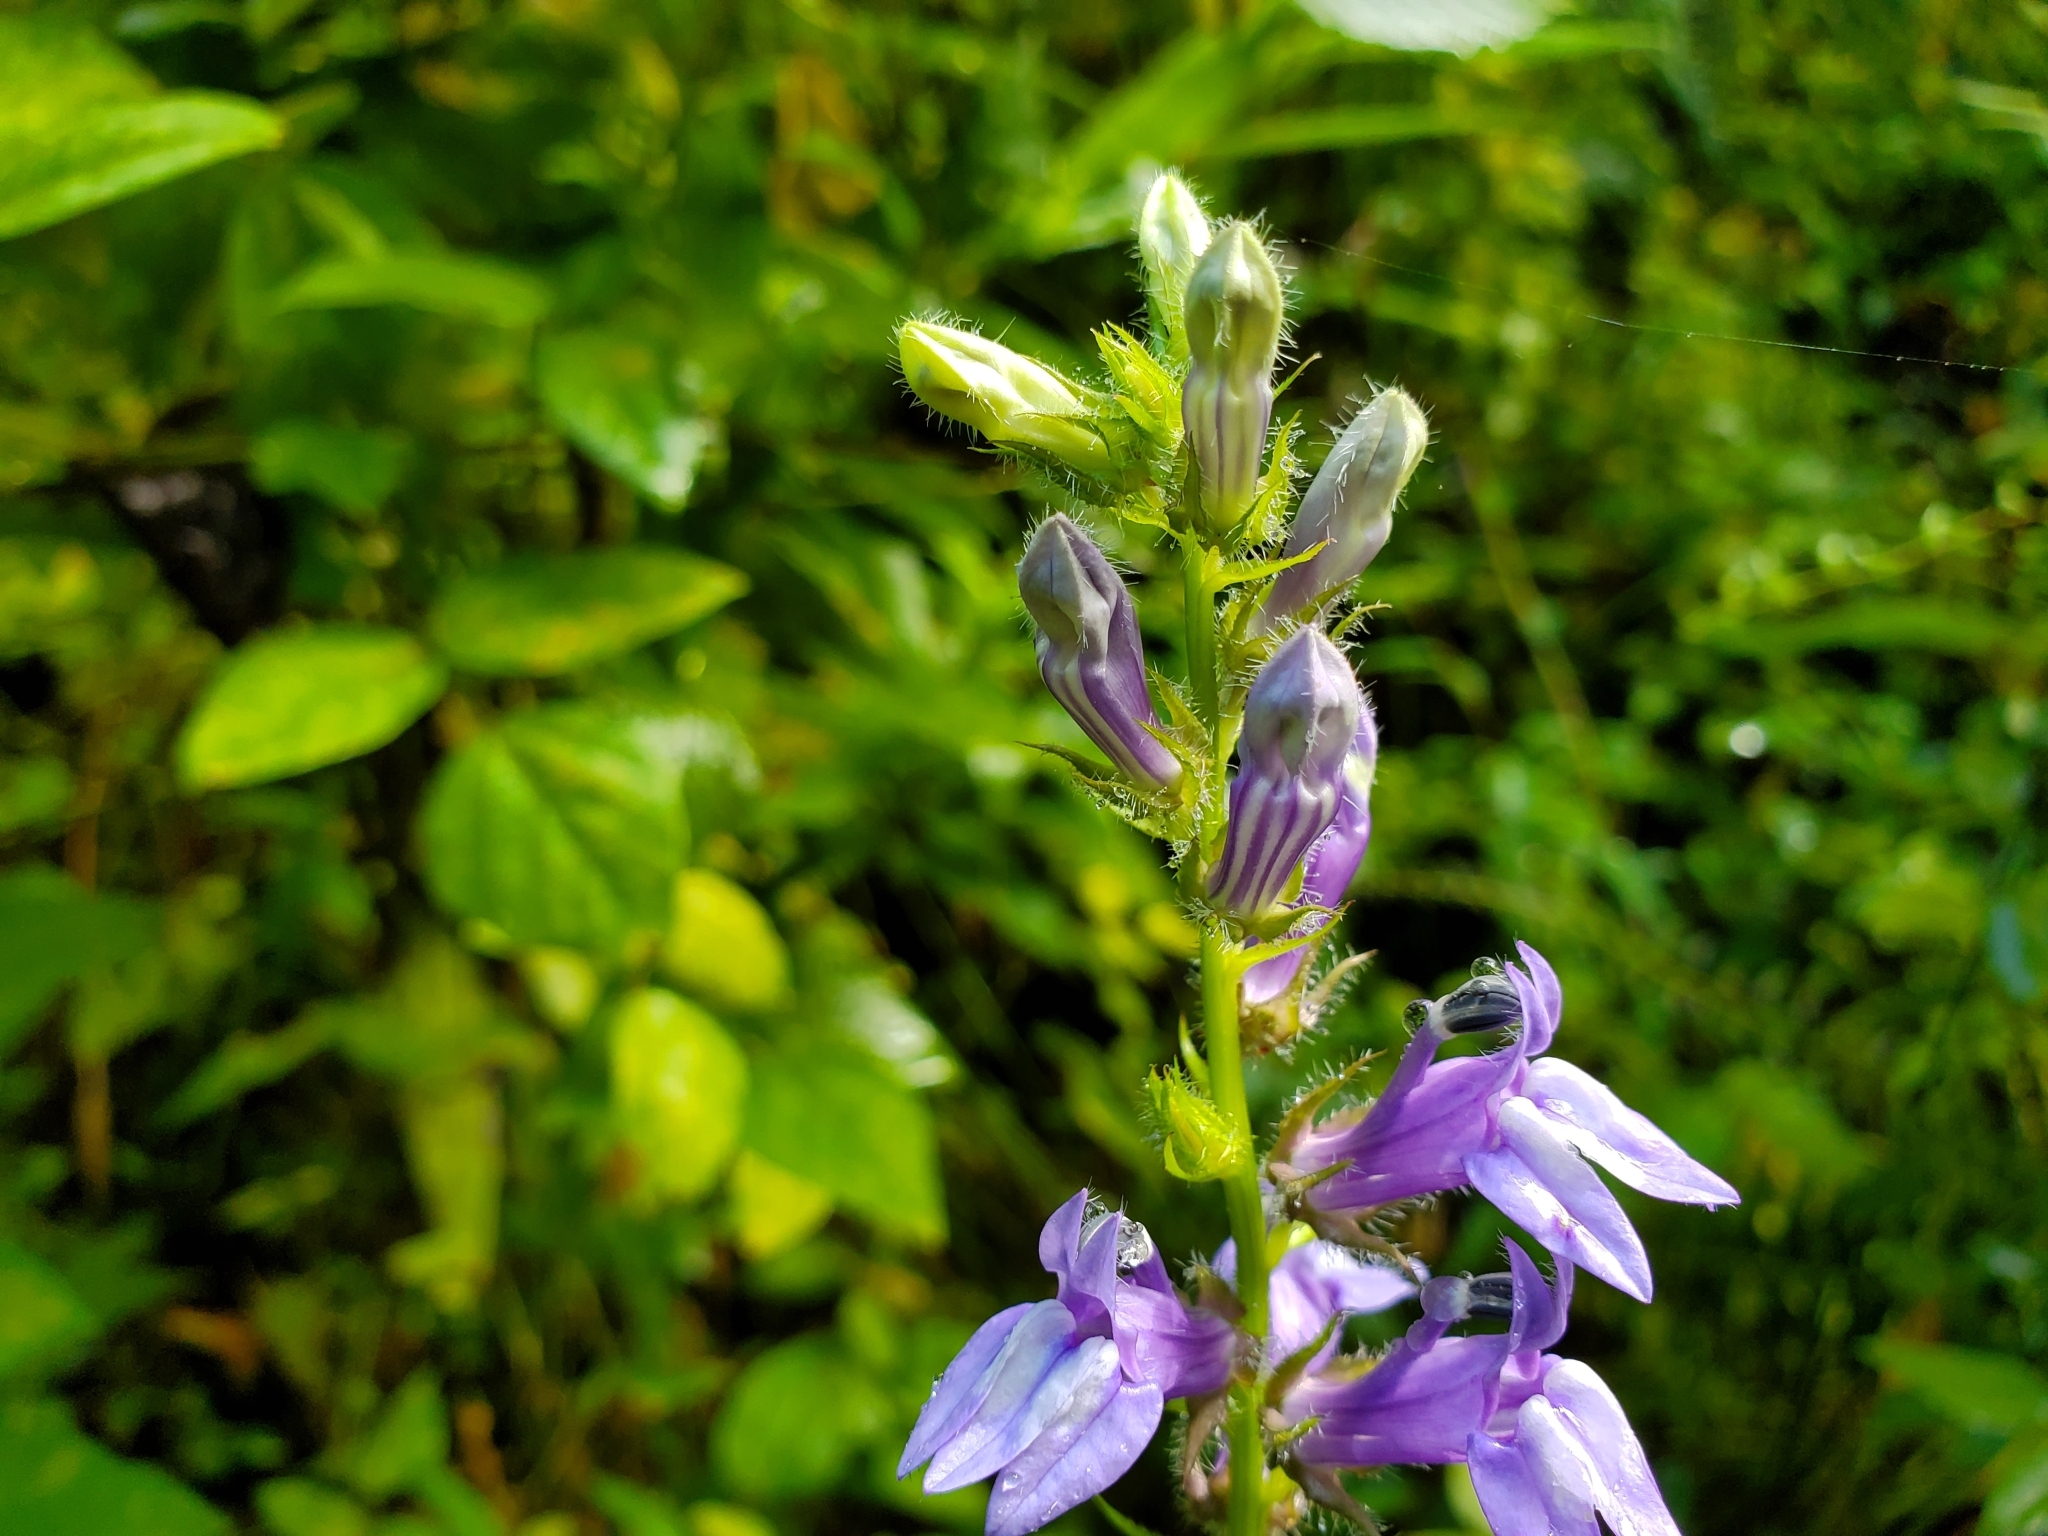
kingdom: Plantae
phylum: Tracheophyta
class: Magnoliopsida
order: Asterales
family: Campanulaceae
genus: Lobelia
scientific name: Lobelia siphilitica
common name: Great lobelia
